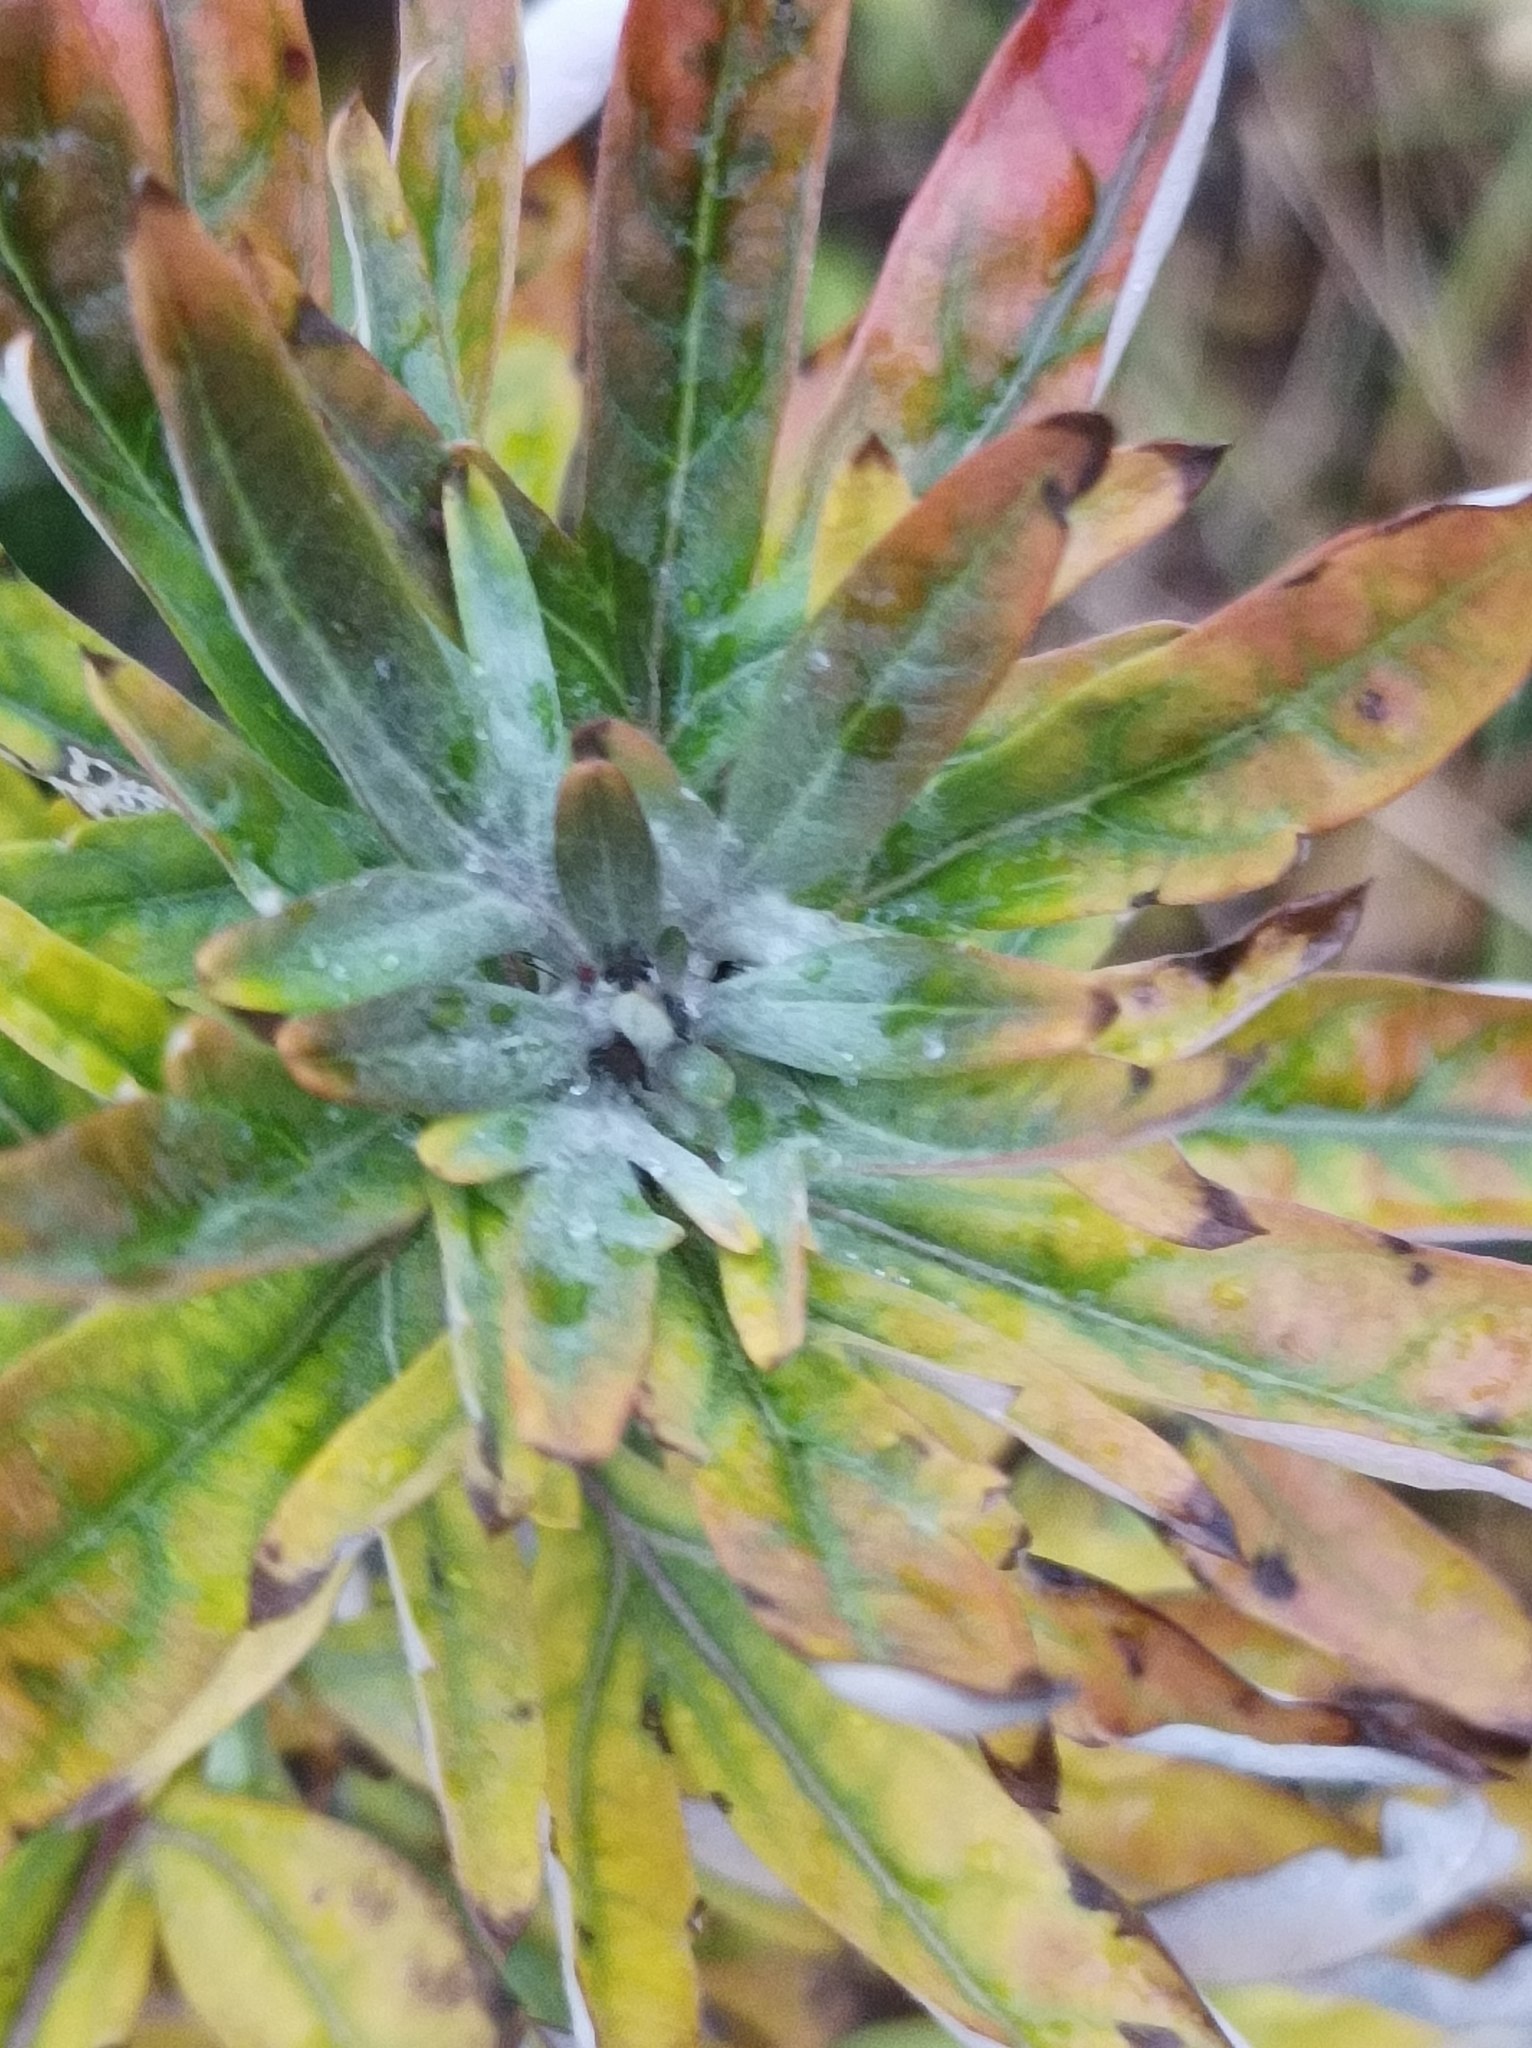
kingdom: Plantae
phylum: Tracheophyta
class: Magnoliopsida
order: Asterales
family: Asteraceae
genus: Artemisia
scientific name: Artemisia vulgaris
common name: Mugwort
